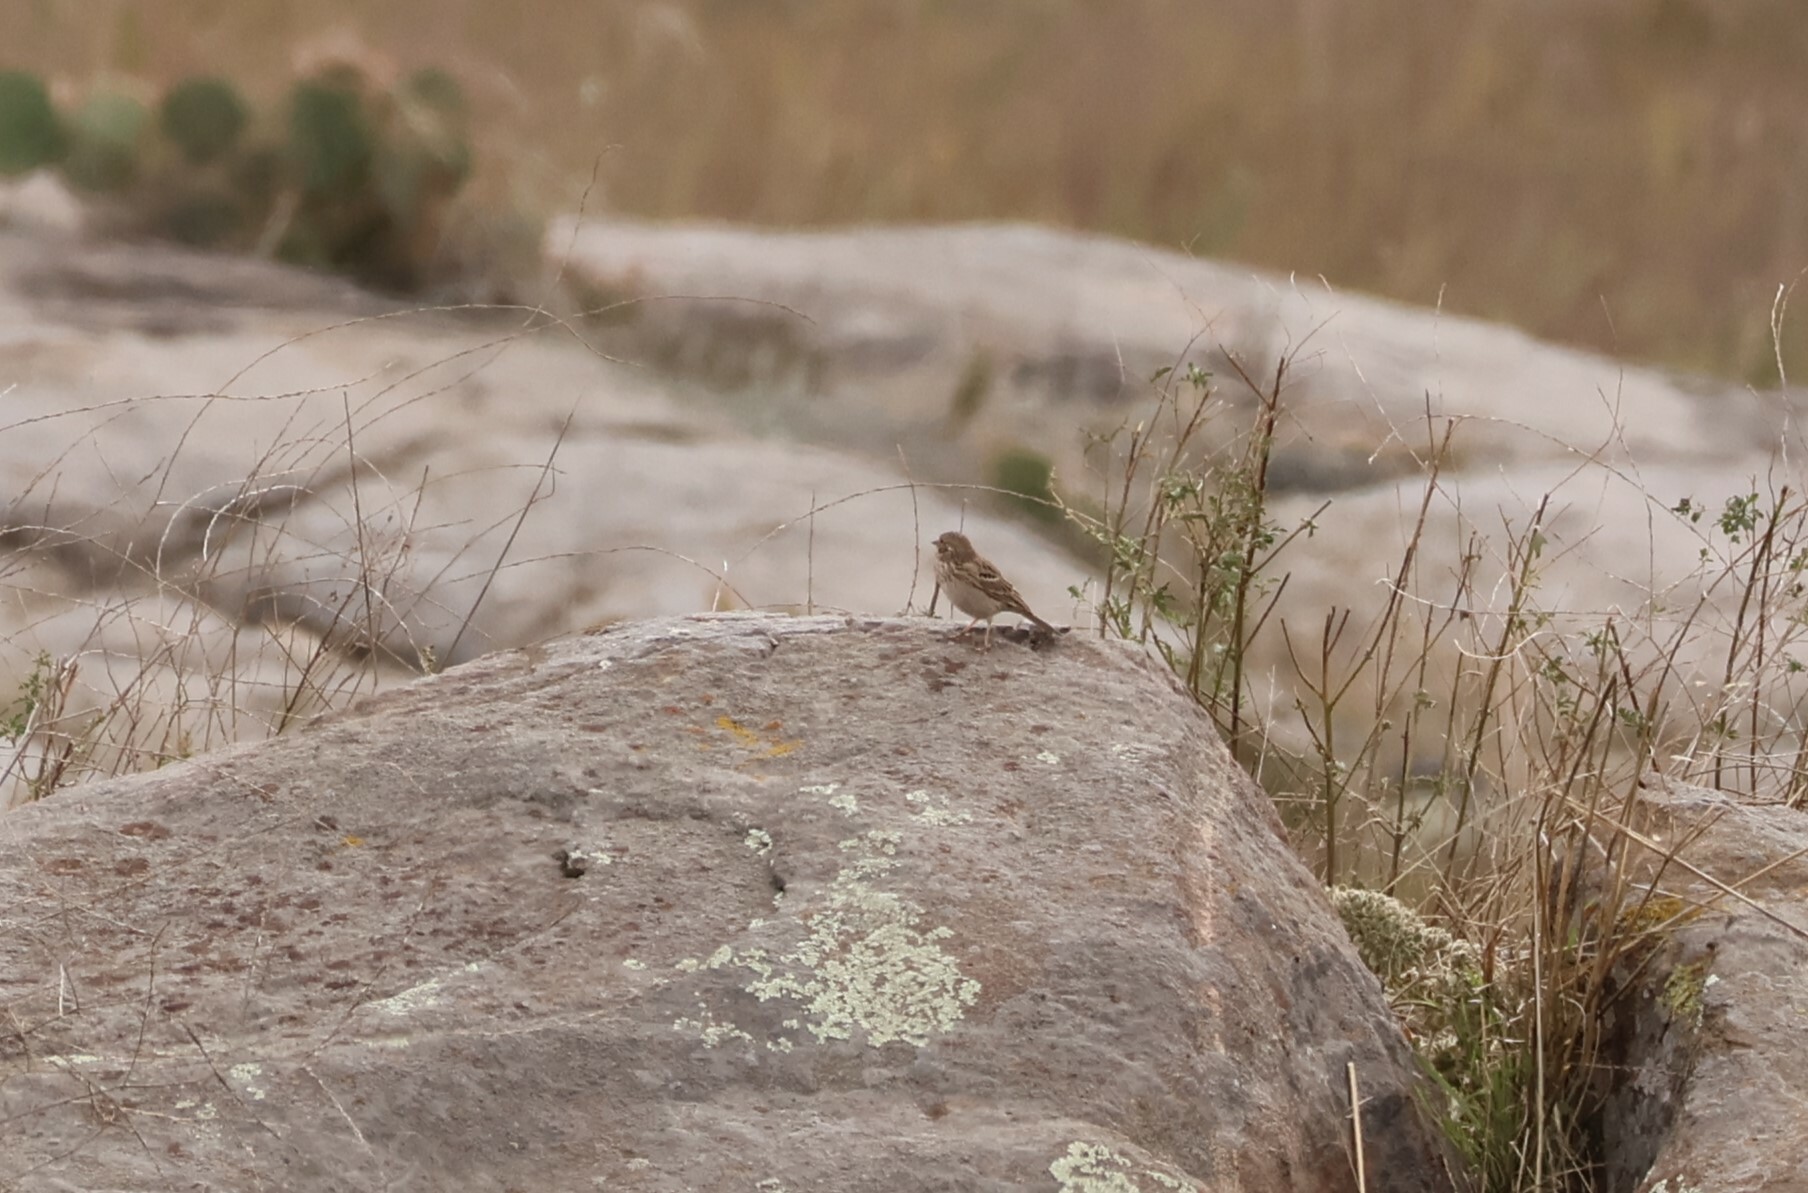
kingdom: Animalia
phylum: Chordata
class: Aves
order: Passeriformes
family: Passerellidae
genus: Pooecetes
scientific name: Pooecetes gramineus
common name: Vesper sparrow
